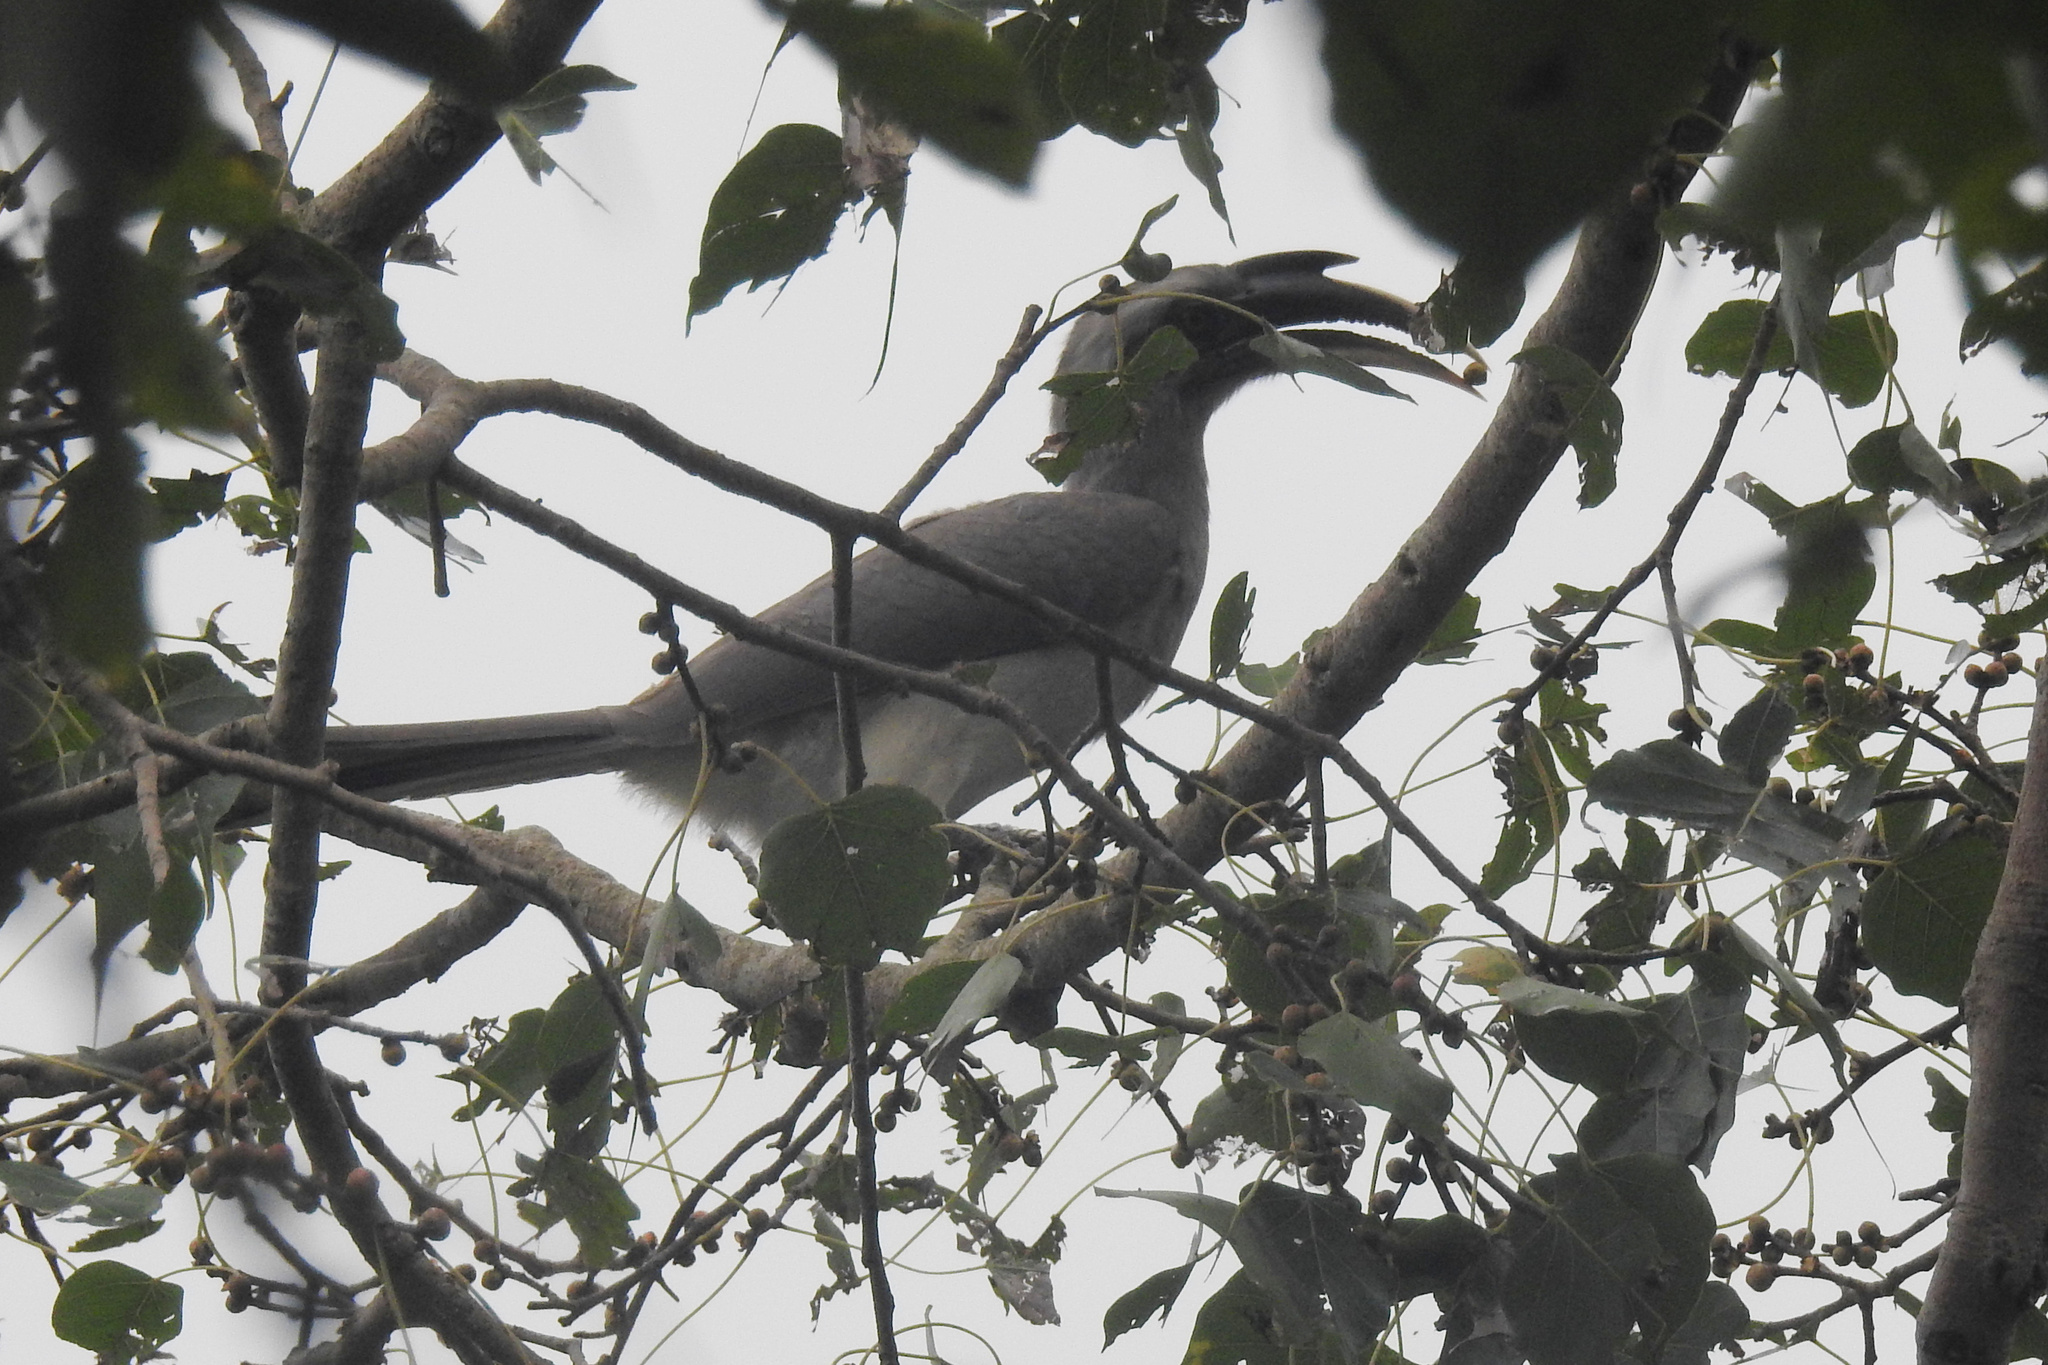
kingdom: Animalia
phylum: Chordata
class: Aves
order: Bucerotiformes
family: Bucerotidae
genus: Ocyceros
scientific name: Ocyceros birostris
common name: Indian grey hornbill
